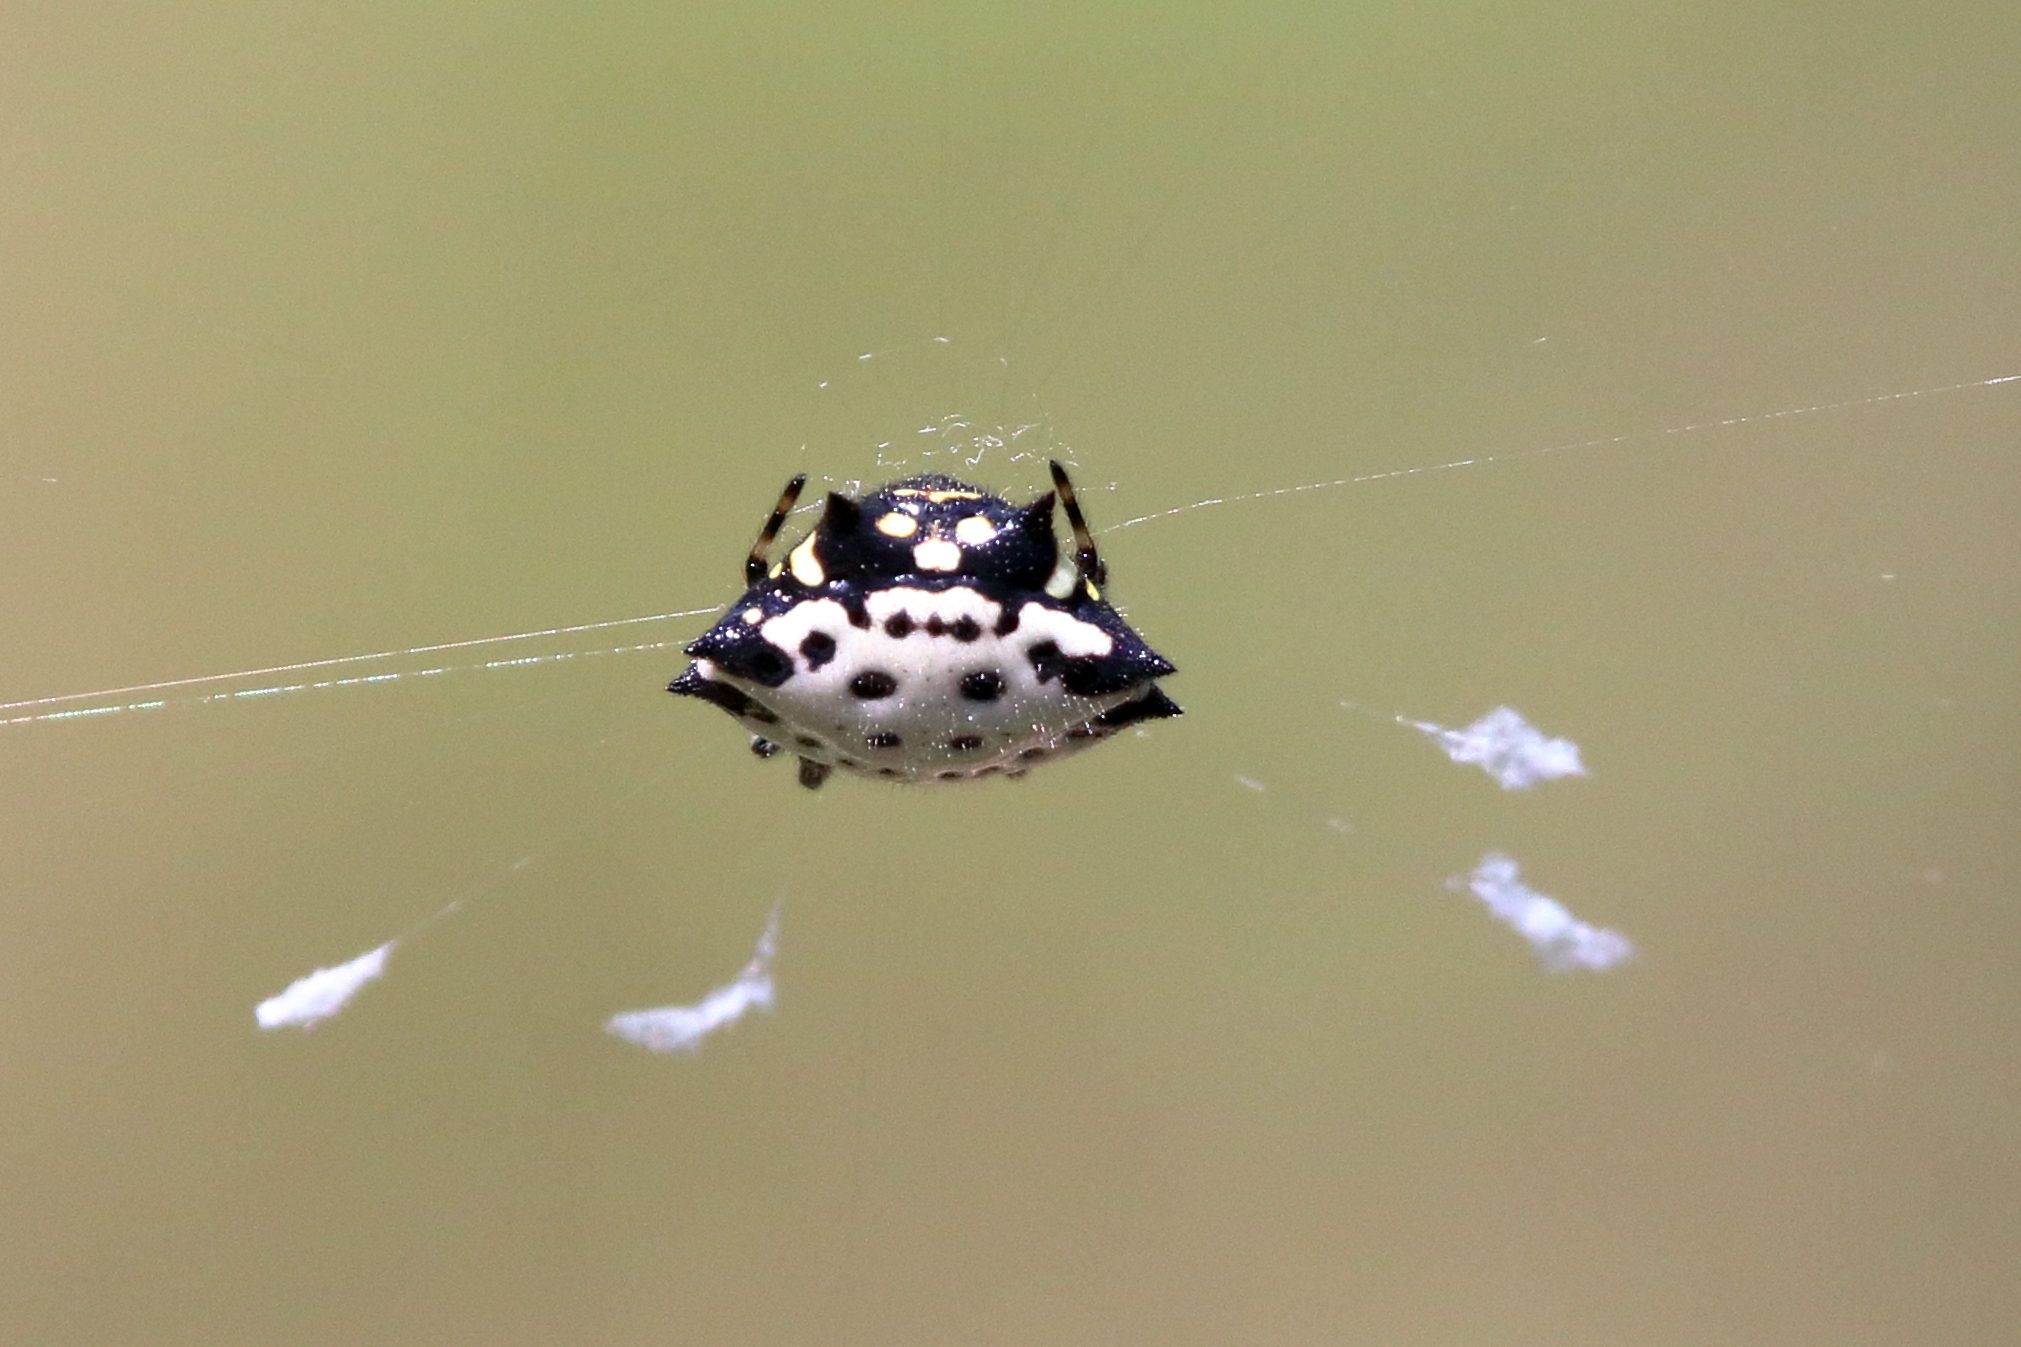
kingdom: Animalia
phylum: Arthropoda
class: Arachnida
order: Araneae
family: Araneidae
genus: Gasteracantha
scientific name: Gasteracantha cancriformis
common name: Orb weavers
